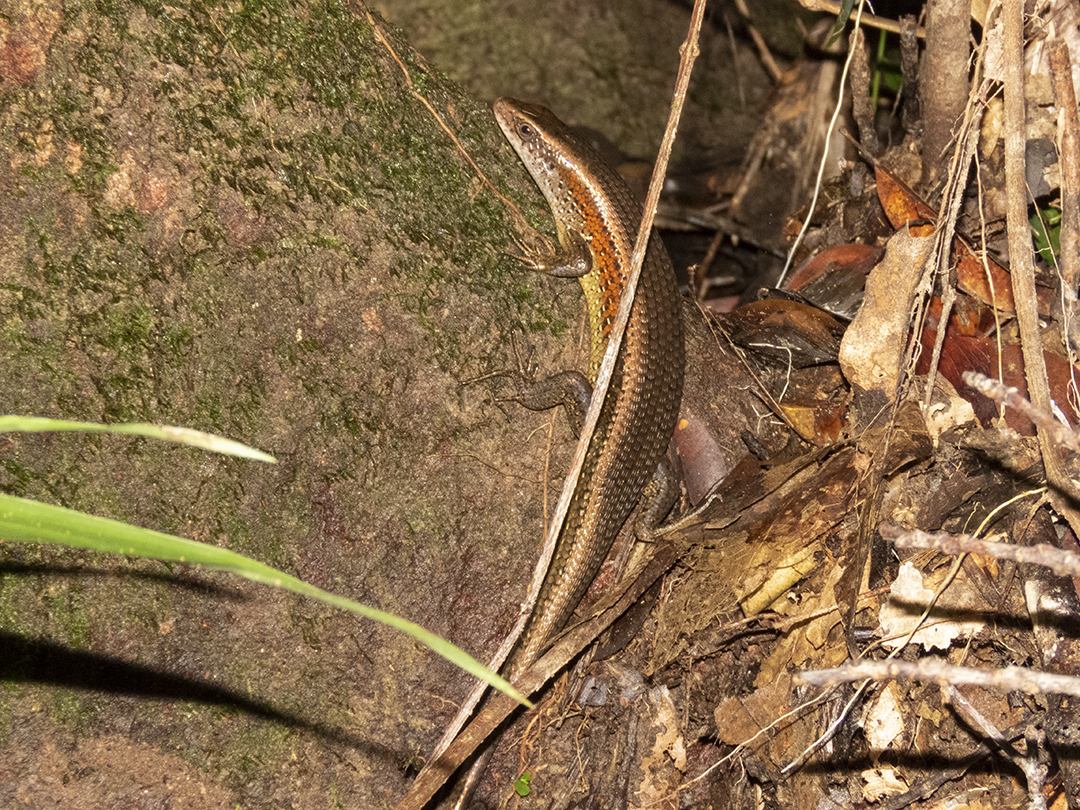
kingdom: Animalia
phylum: Chordata
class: Squamata
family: Scincidae
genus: Eutropis
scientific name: Eutropis multifasciata
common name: Common mabuya
